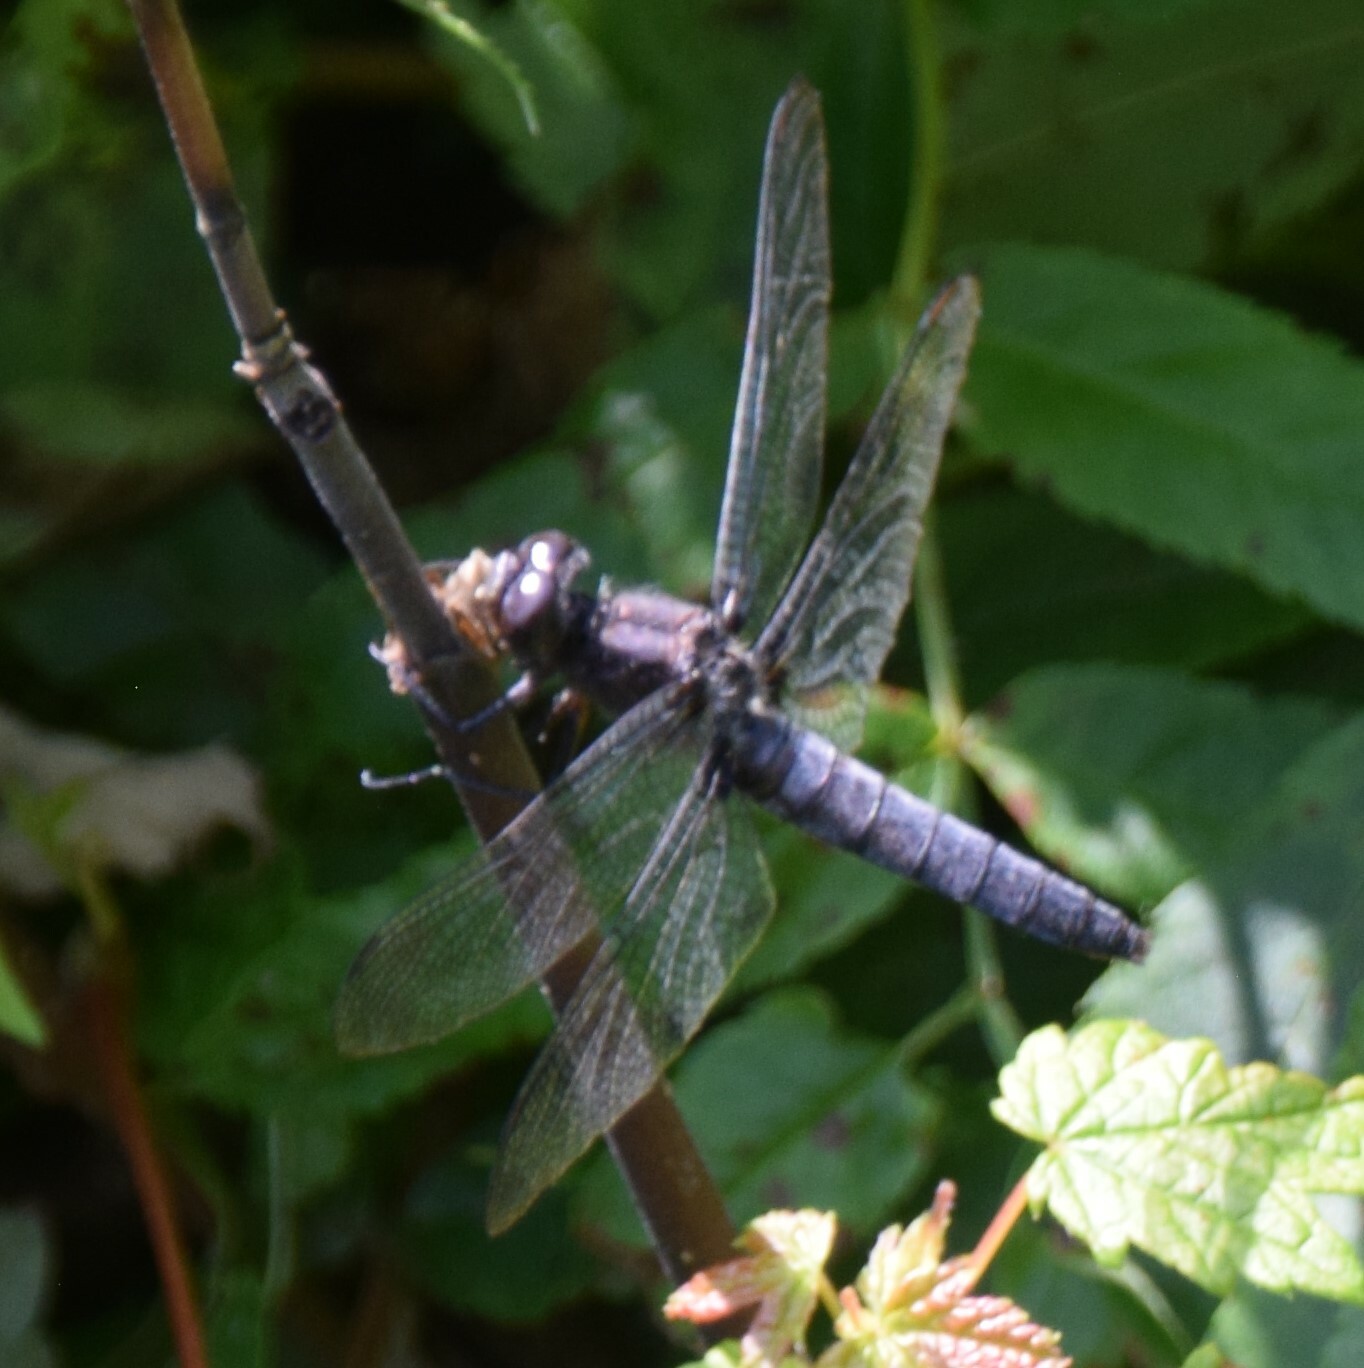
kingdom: Animalia
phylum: Arthropoda
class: Insecta
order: Odonata
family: Libellulidae
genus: Ladona
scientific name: Ladona julia
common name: Chalk-fronted corporal
